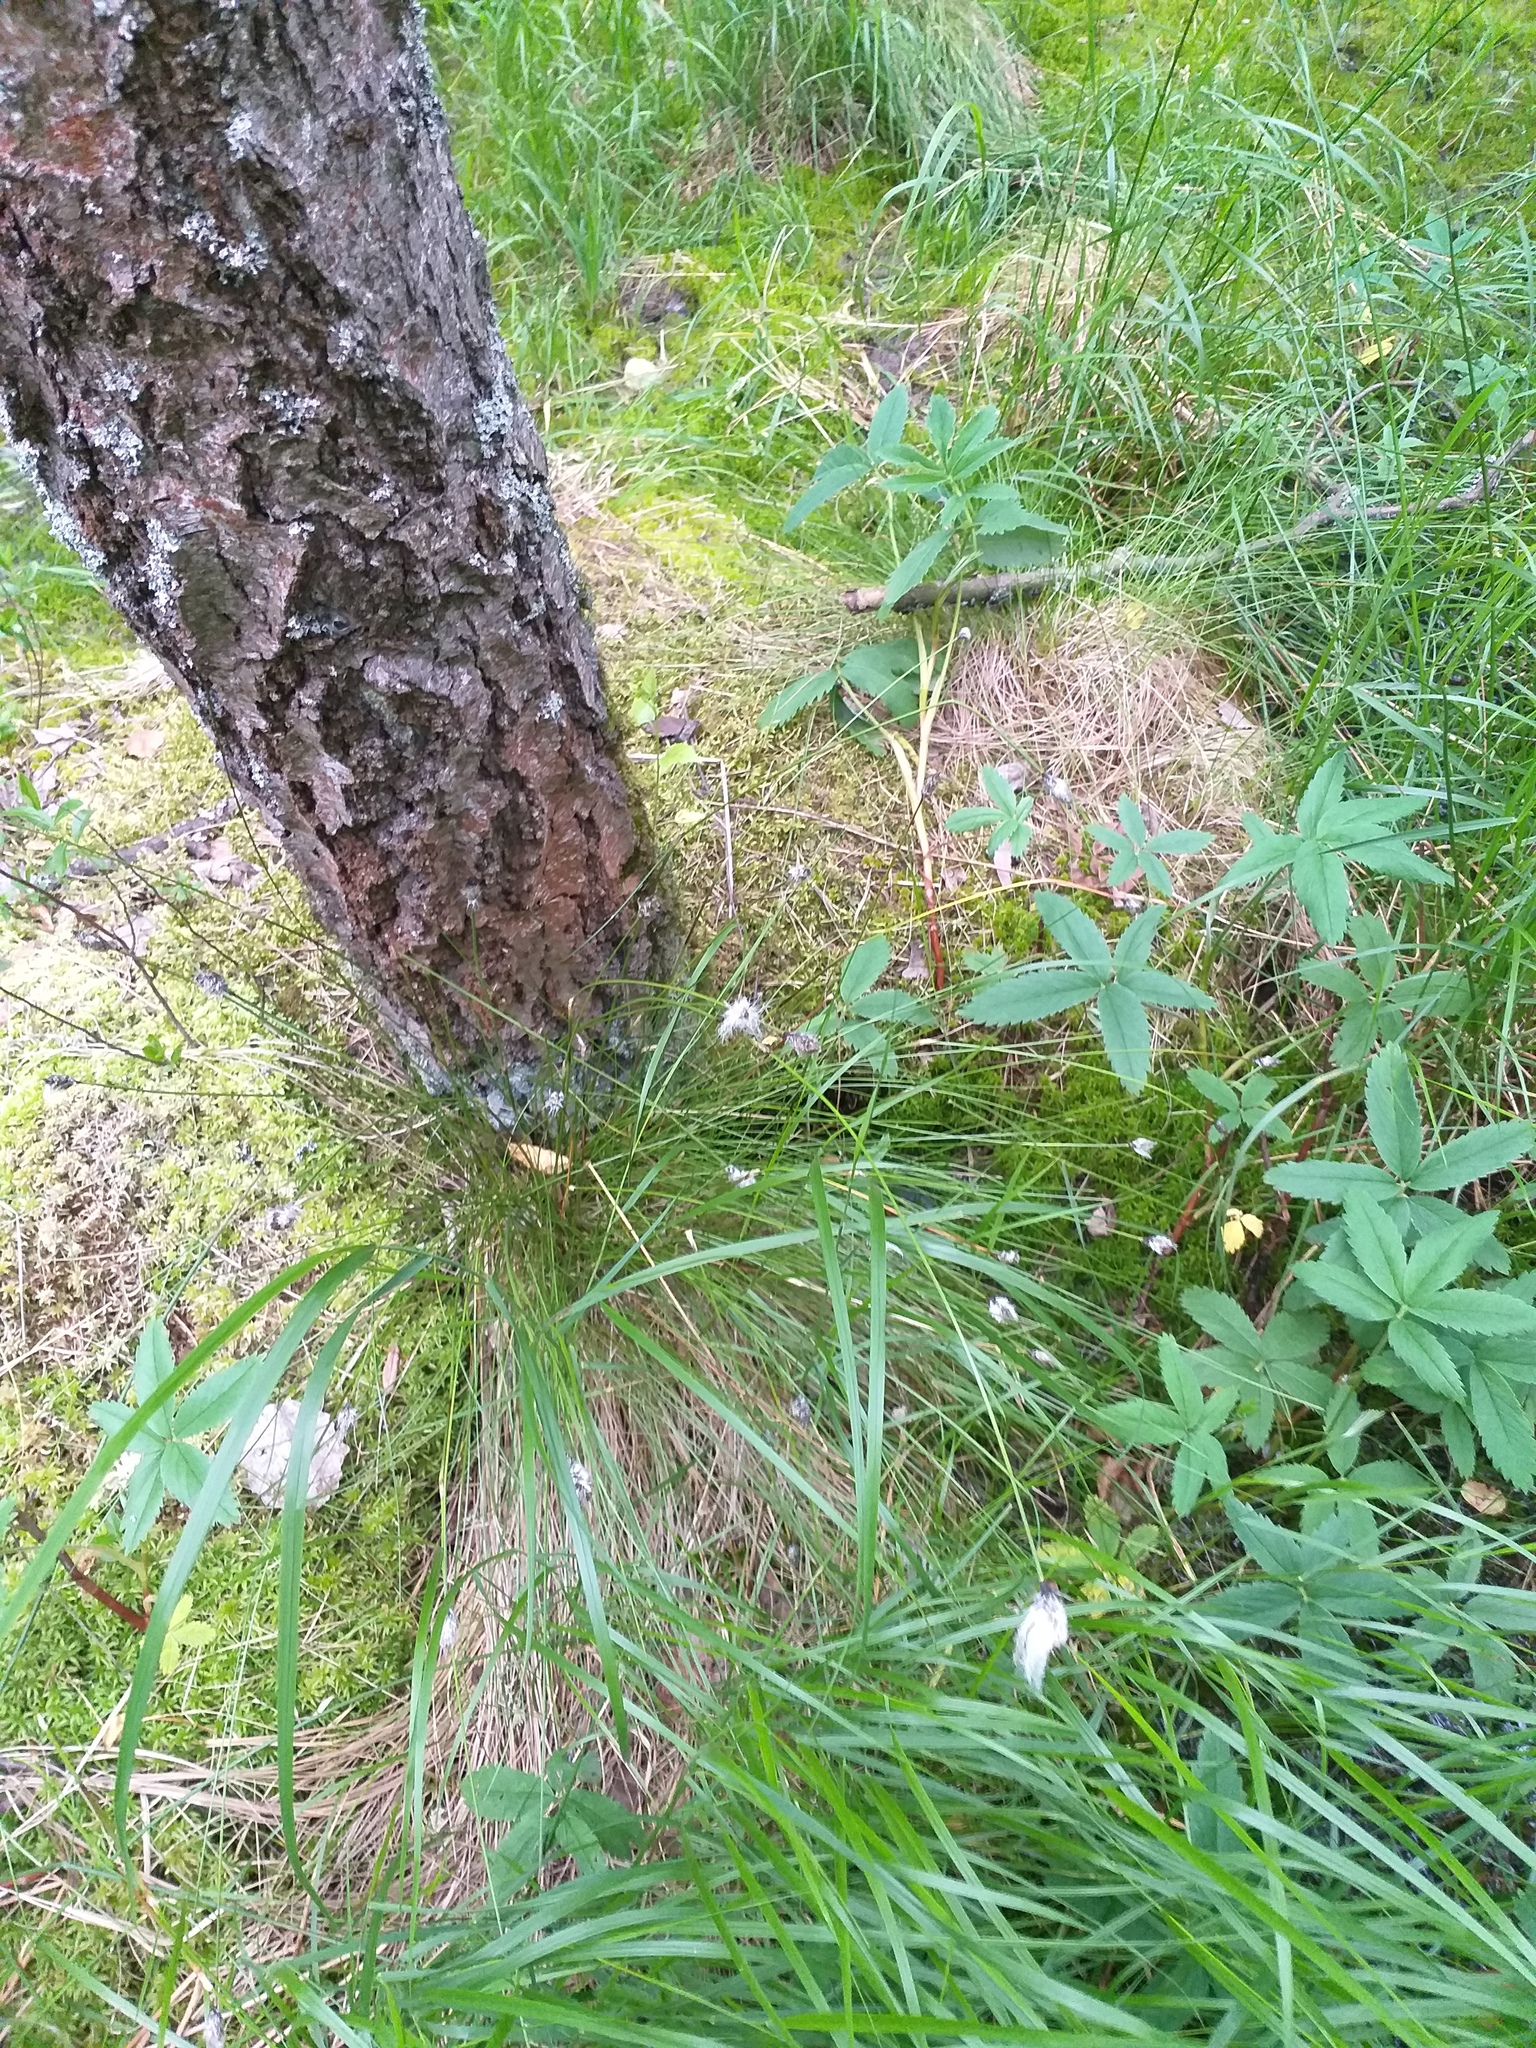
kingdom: Plantae
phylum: Tracheophyta
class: Liliopsida
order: Poales
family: Cyperaceae
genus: Eriophorum
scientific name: Eriophorum vaginatum
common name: Hare's-tail cottongrass
